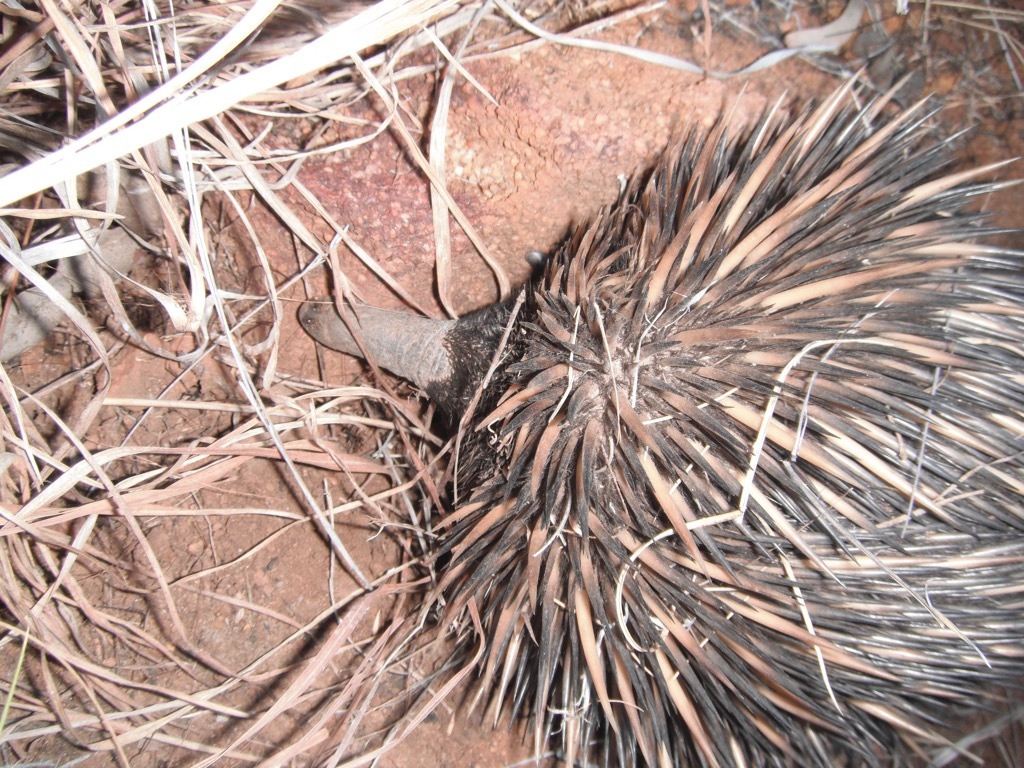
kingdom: Animalia
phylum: Chordata
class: Mammalia
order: Monotremata
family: Tachyglossidae
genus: Tachyglossus
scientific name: Tachyglossus aculeatus
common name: Short-beaked echidna
